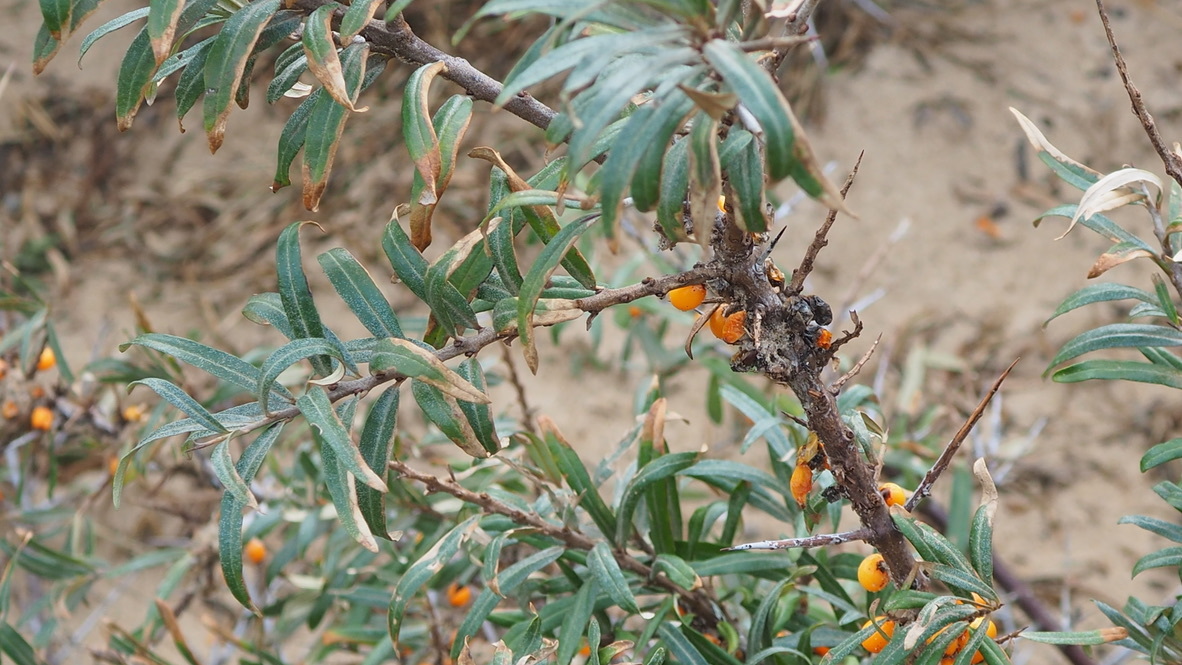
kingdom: Plantae
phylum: Tracheophyta
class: Magnoliopsida
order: Rosales
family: Elaeagnaceae
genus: Hippophae
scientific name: Hippophae rhamnoides
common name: Sea-buckthorn
